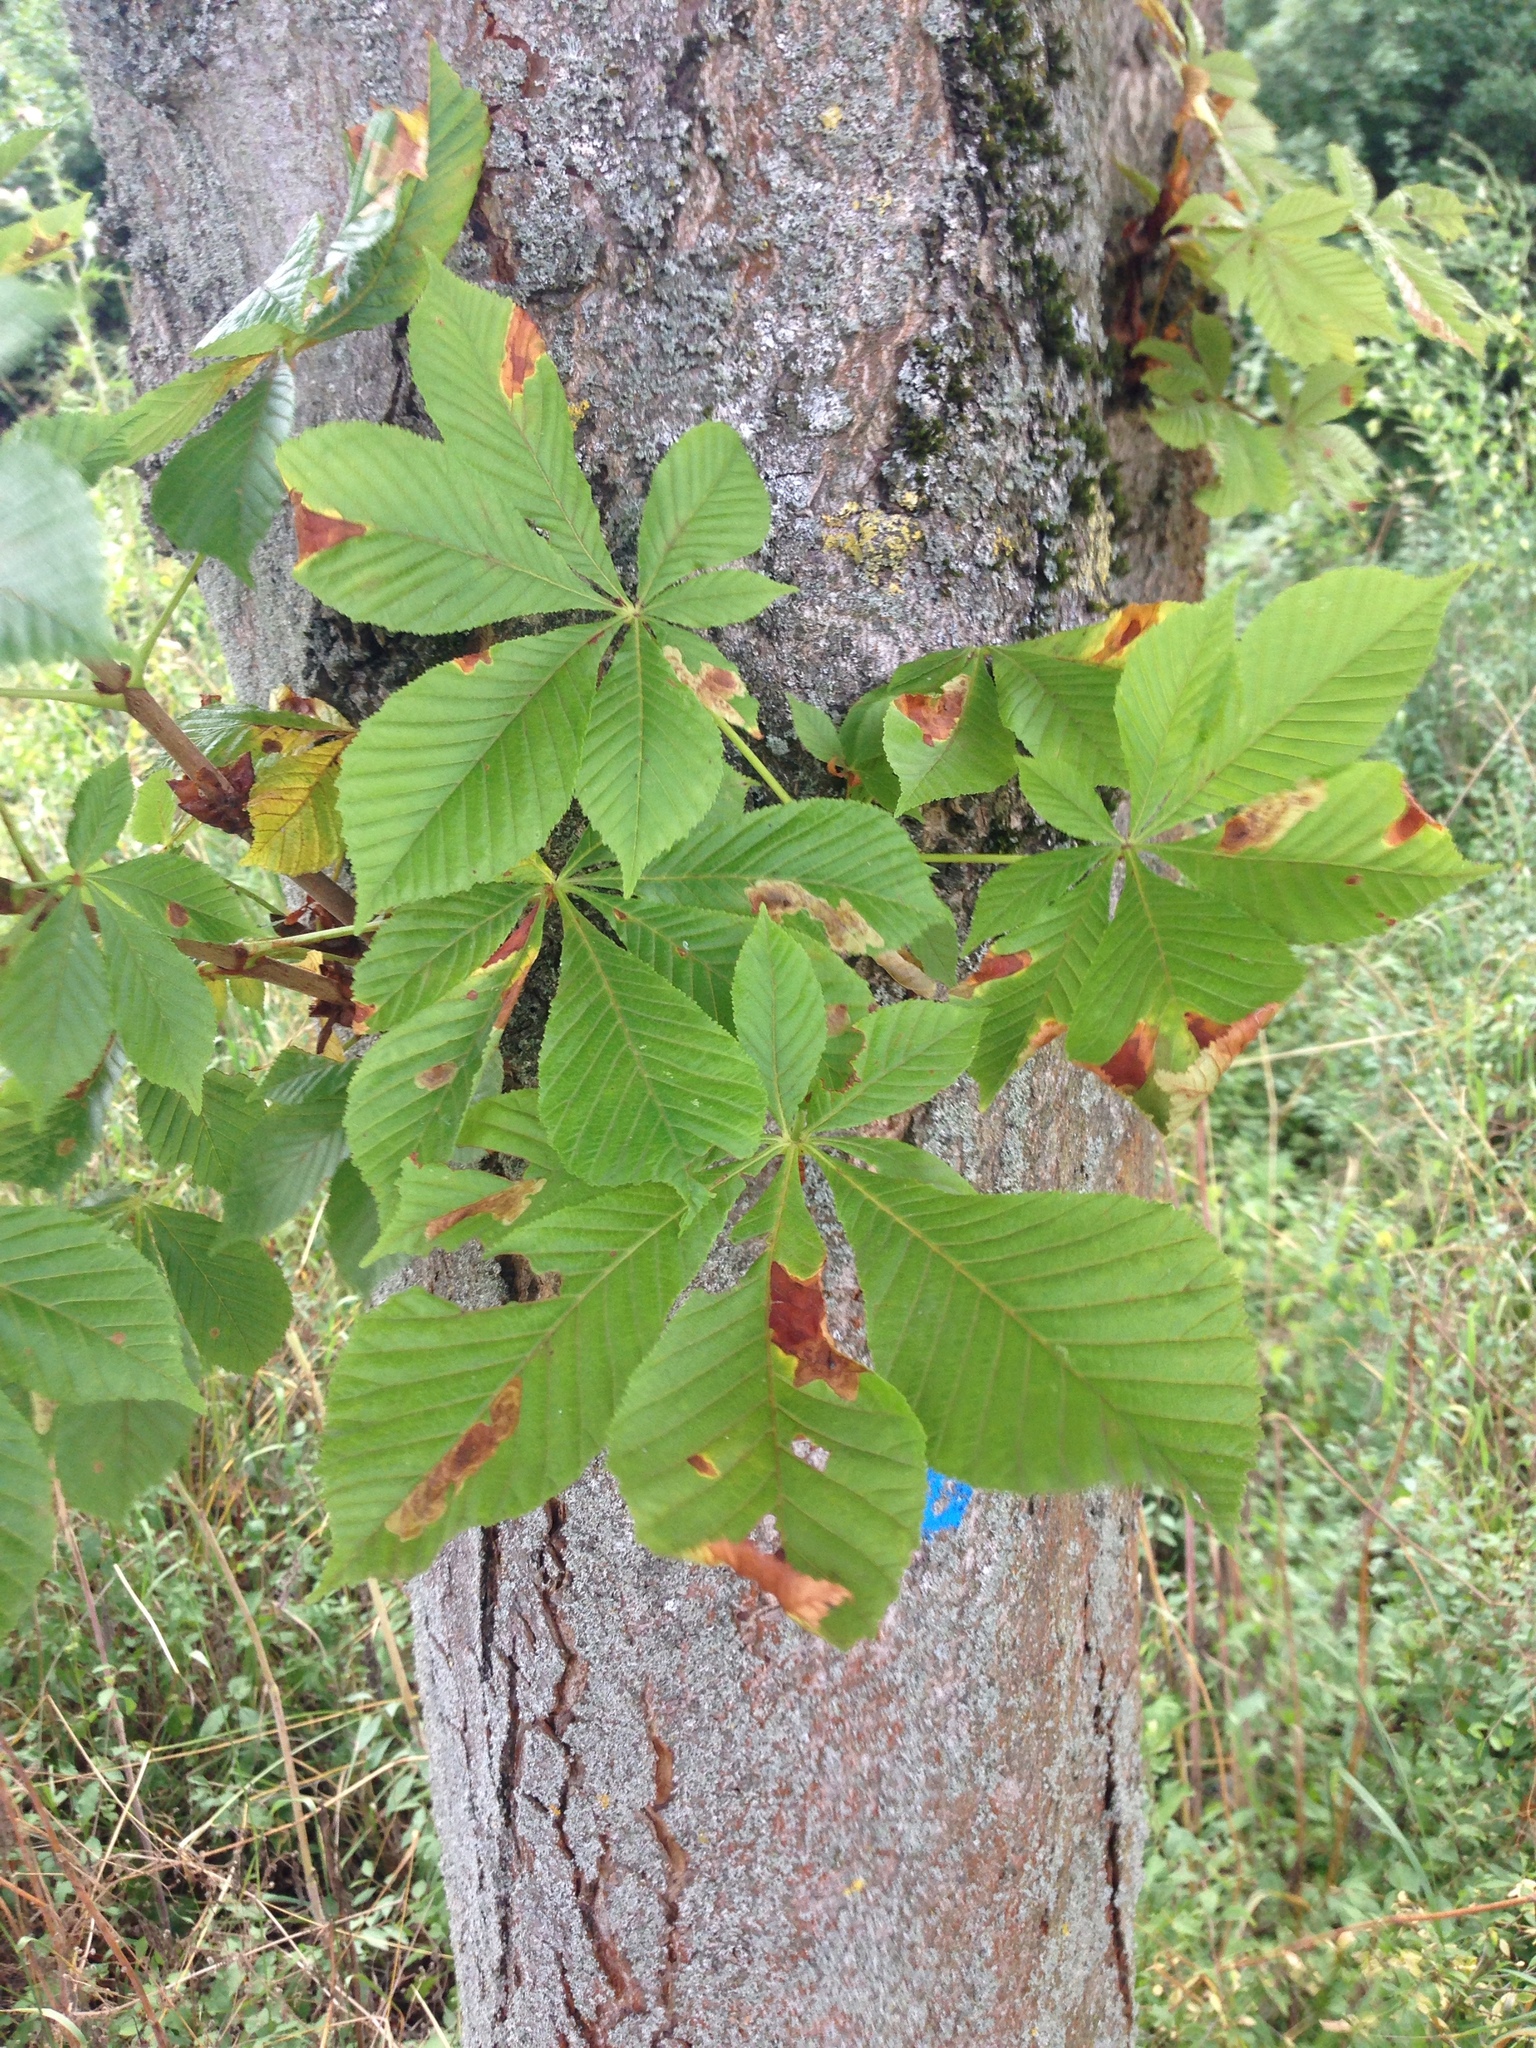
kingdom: Plantae
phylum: Tracheophyta
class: Magnoliopsida
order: Sapindales
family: Sapindaceae
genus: Aesculus
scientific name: Aesculus hippocastanum
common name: Horse-chestnut
